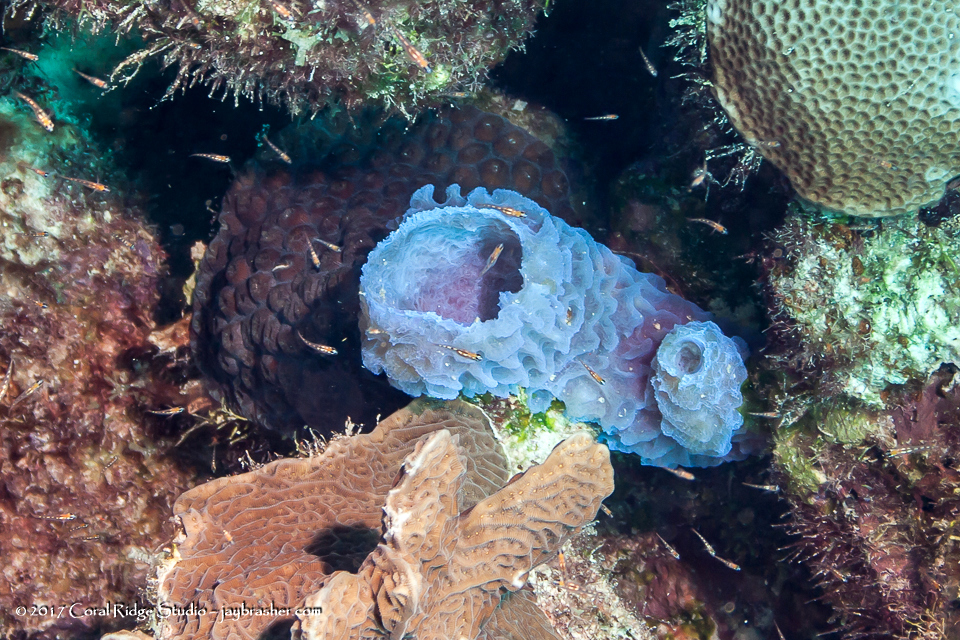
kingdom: Animalia
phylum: Porifera
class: Demospongiae
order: Haplosclerida
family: Callyspongiidae
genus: Callyspongia
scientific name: Callyspongia plicifera
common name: Azure vase sponge
